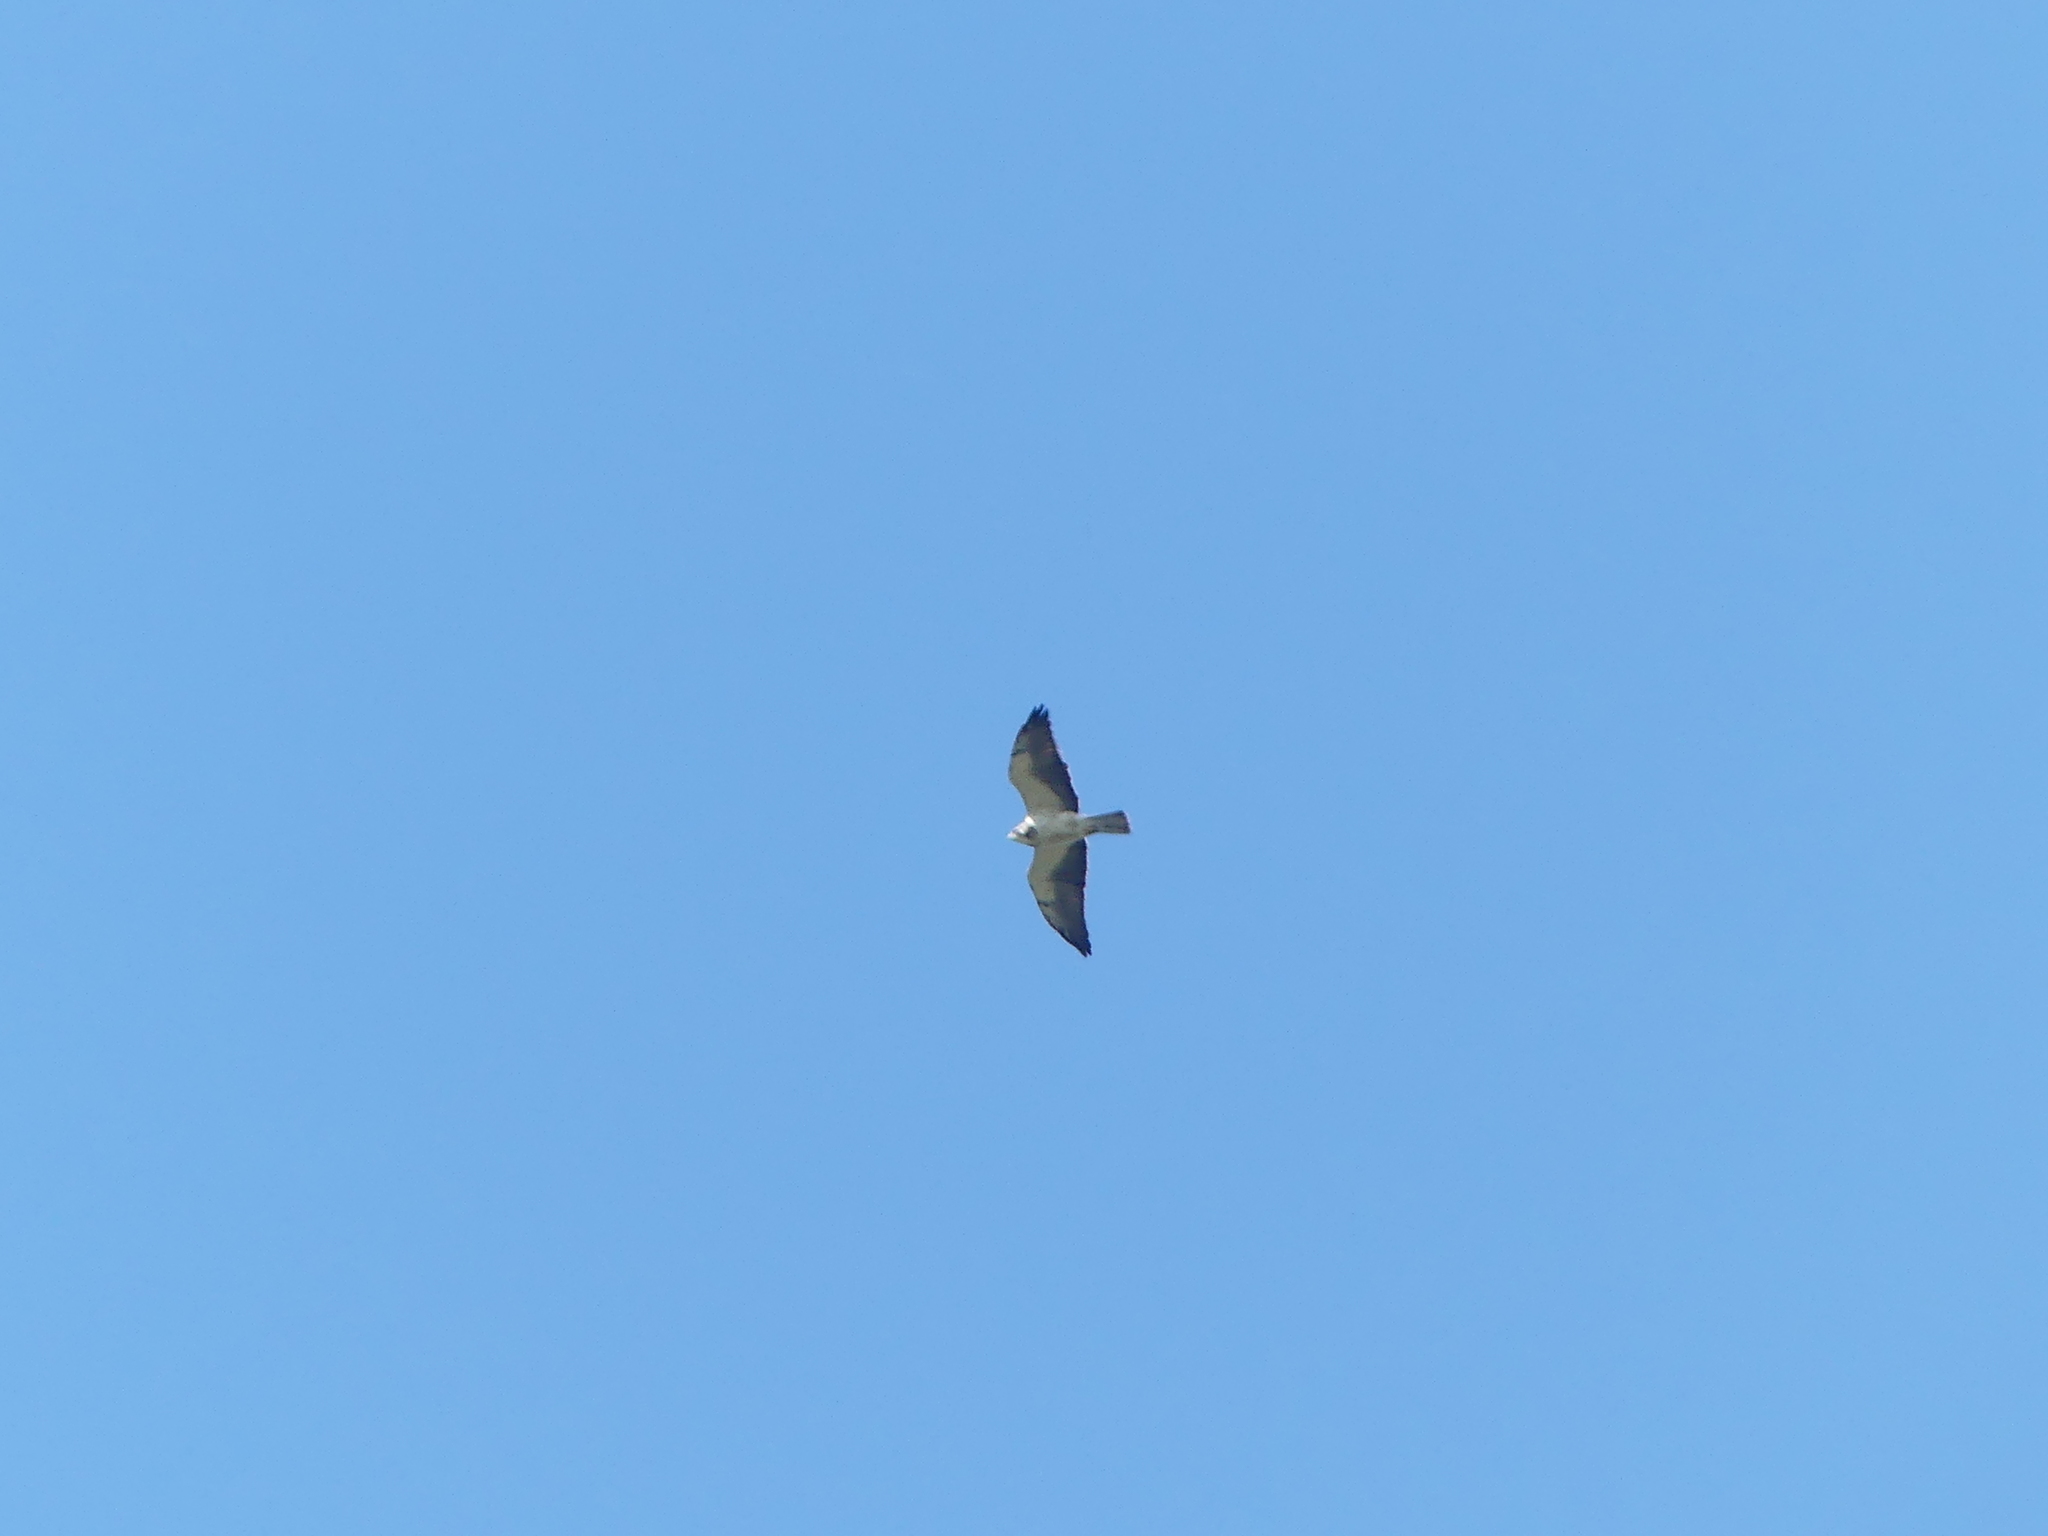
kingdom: Animalia
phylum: Chordata
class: Aves
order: Accipitriformes
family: Accipitridae
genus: Buteo
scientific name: Buteo swainsoni
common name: Swainson's hawk
